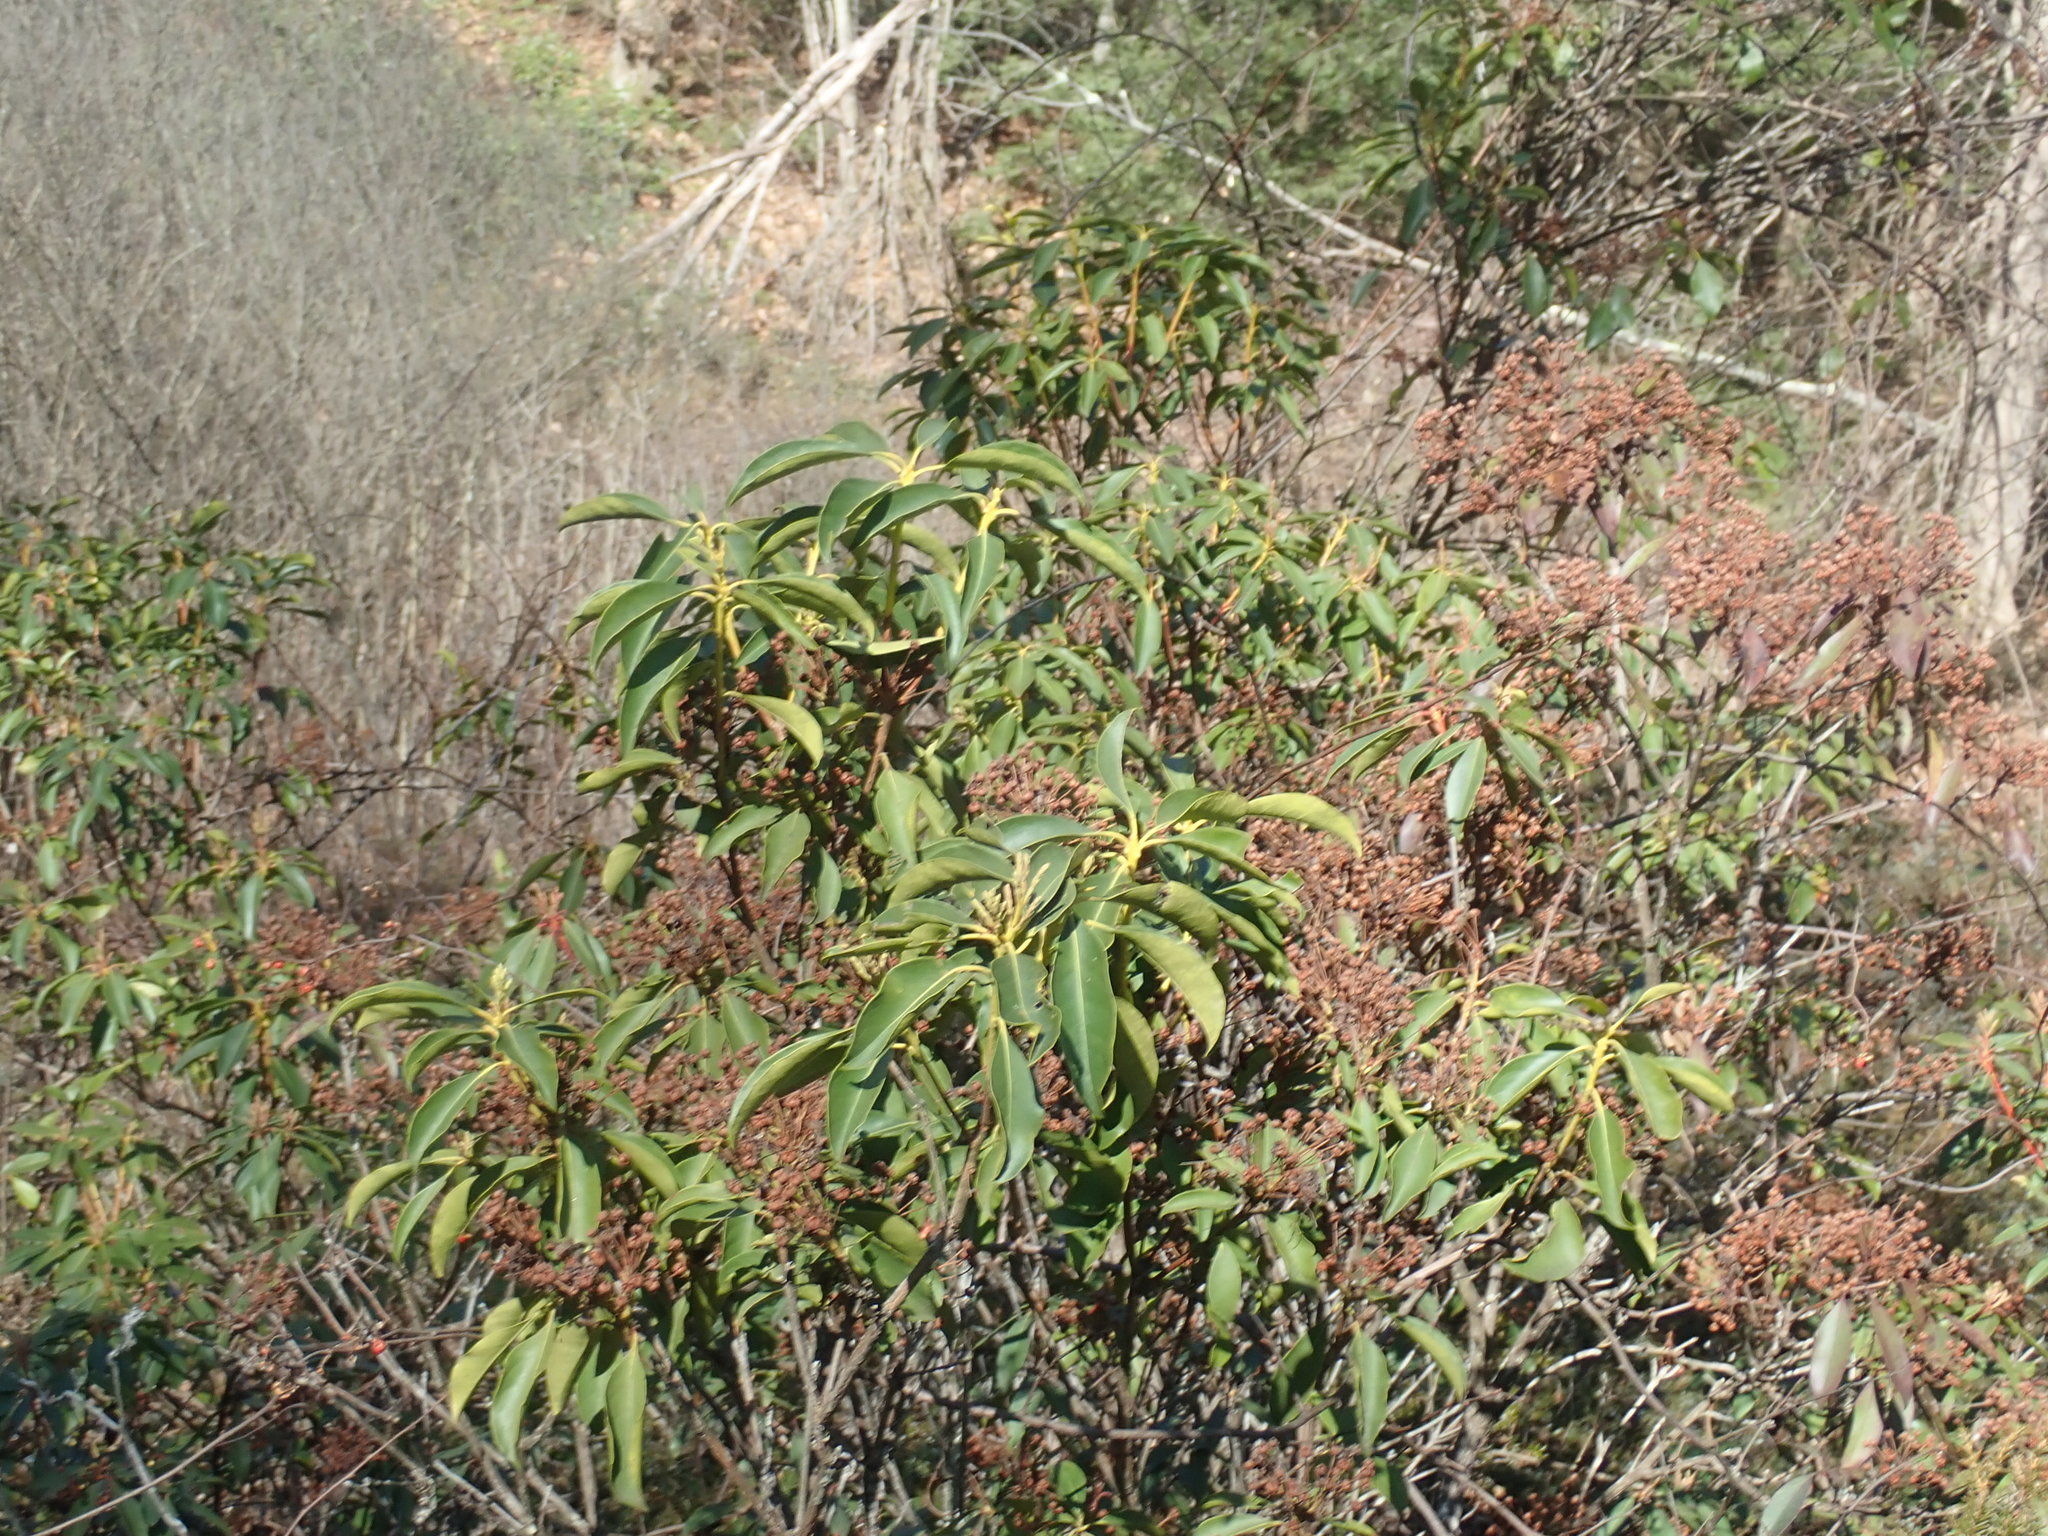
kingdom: Plantae
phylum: Tracheophyta
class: Magnoliopsida
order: Ericales
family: Ericaceae
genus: Kalmia
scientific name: Kalmia latifolia
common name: Mountain-laurel
